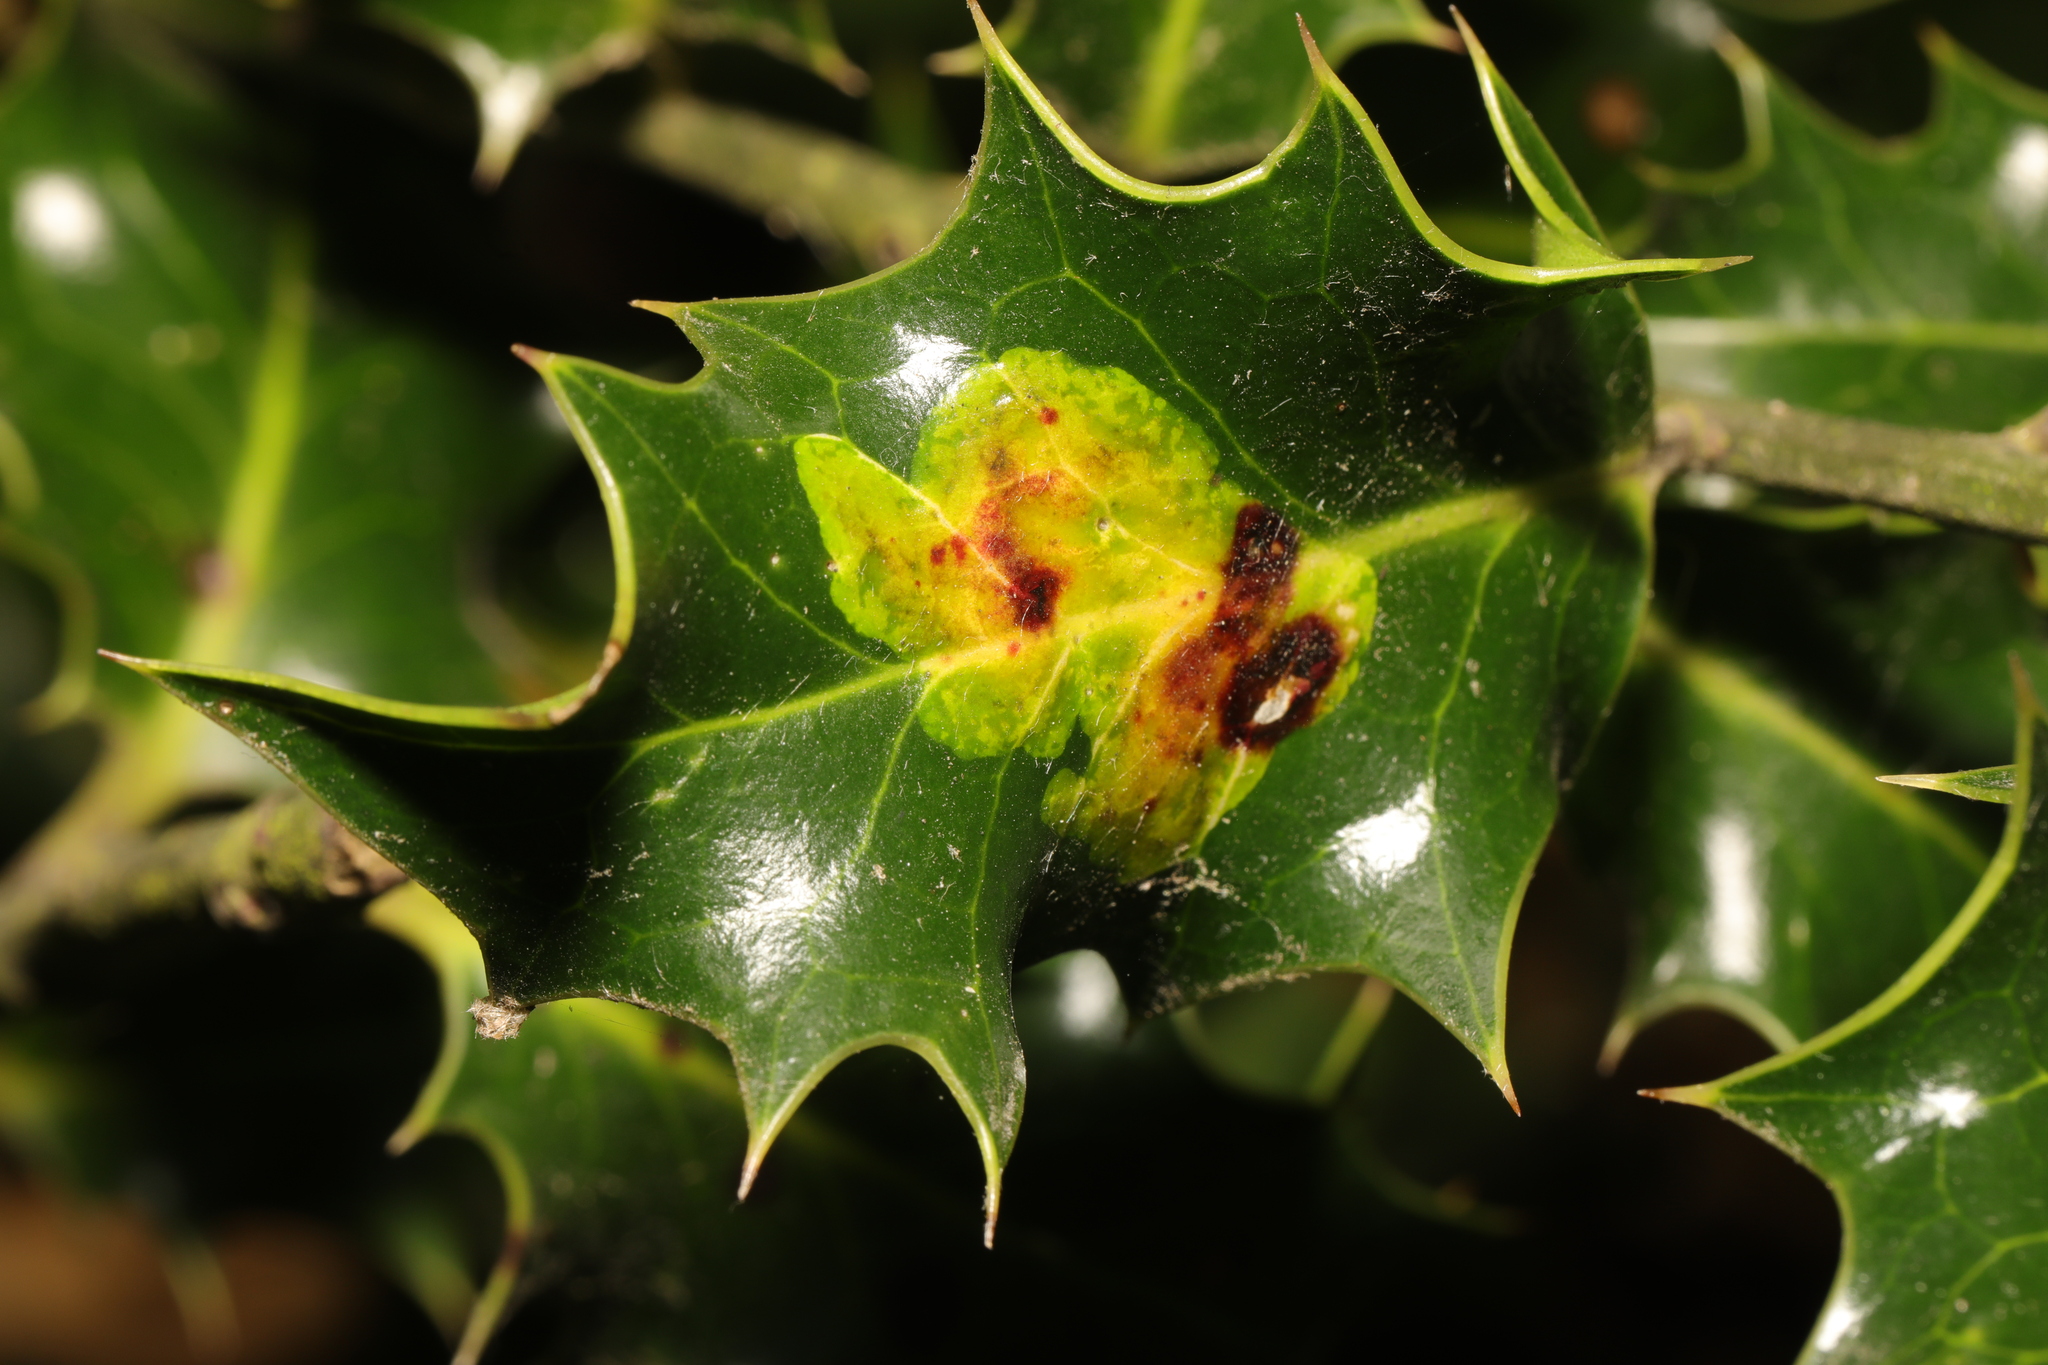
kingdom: Animalia
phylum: Arthropoda
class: Insecta
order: Diptera
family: Agromyzidae
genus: Phytomyza
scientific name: Phytomyza ilicis
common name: Holly leafminer
